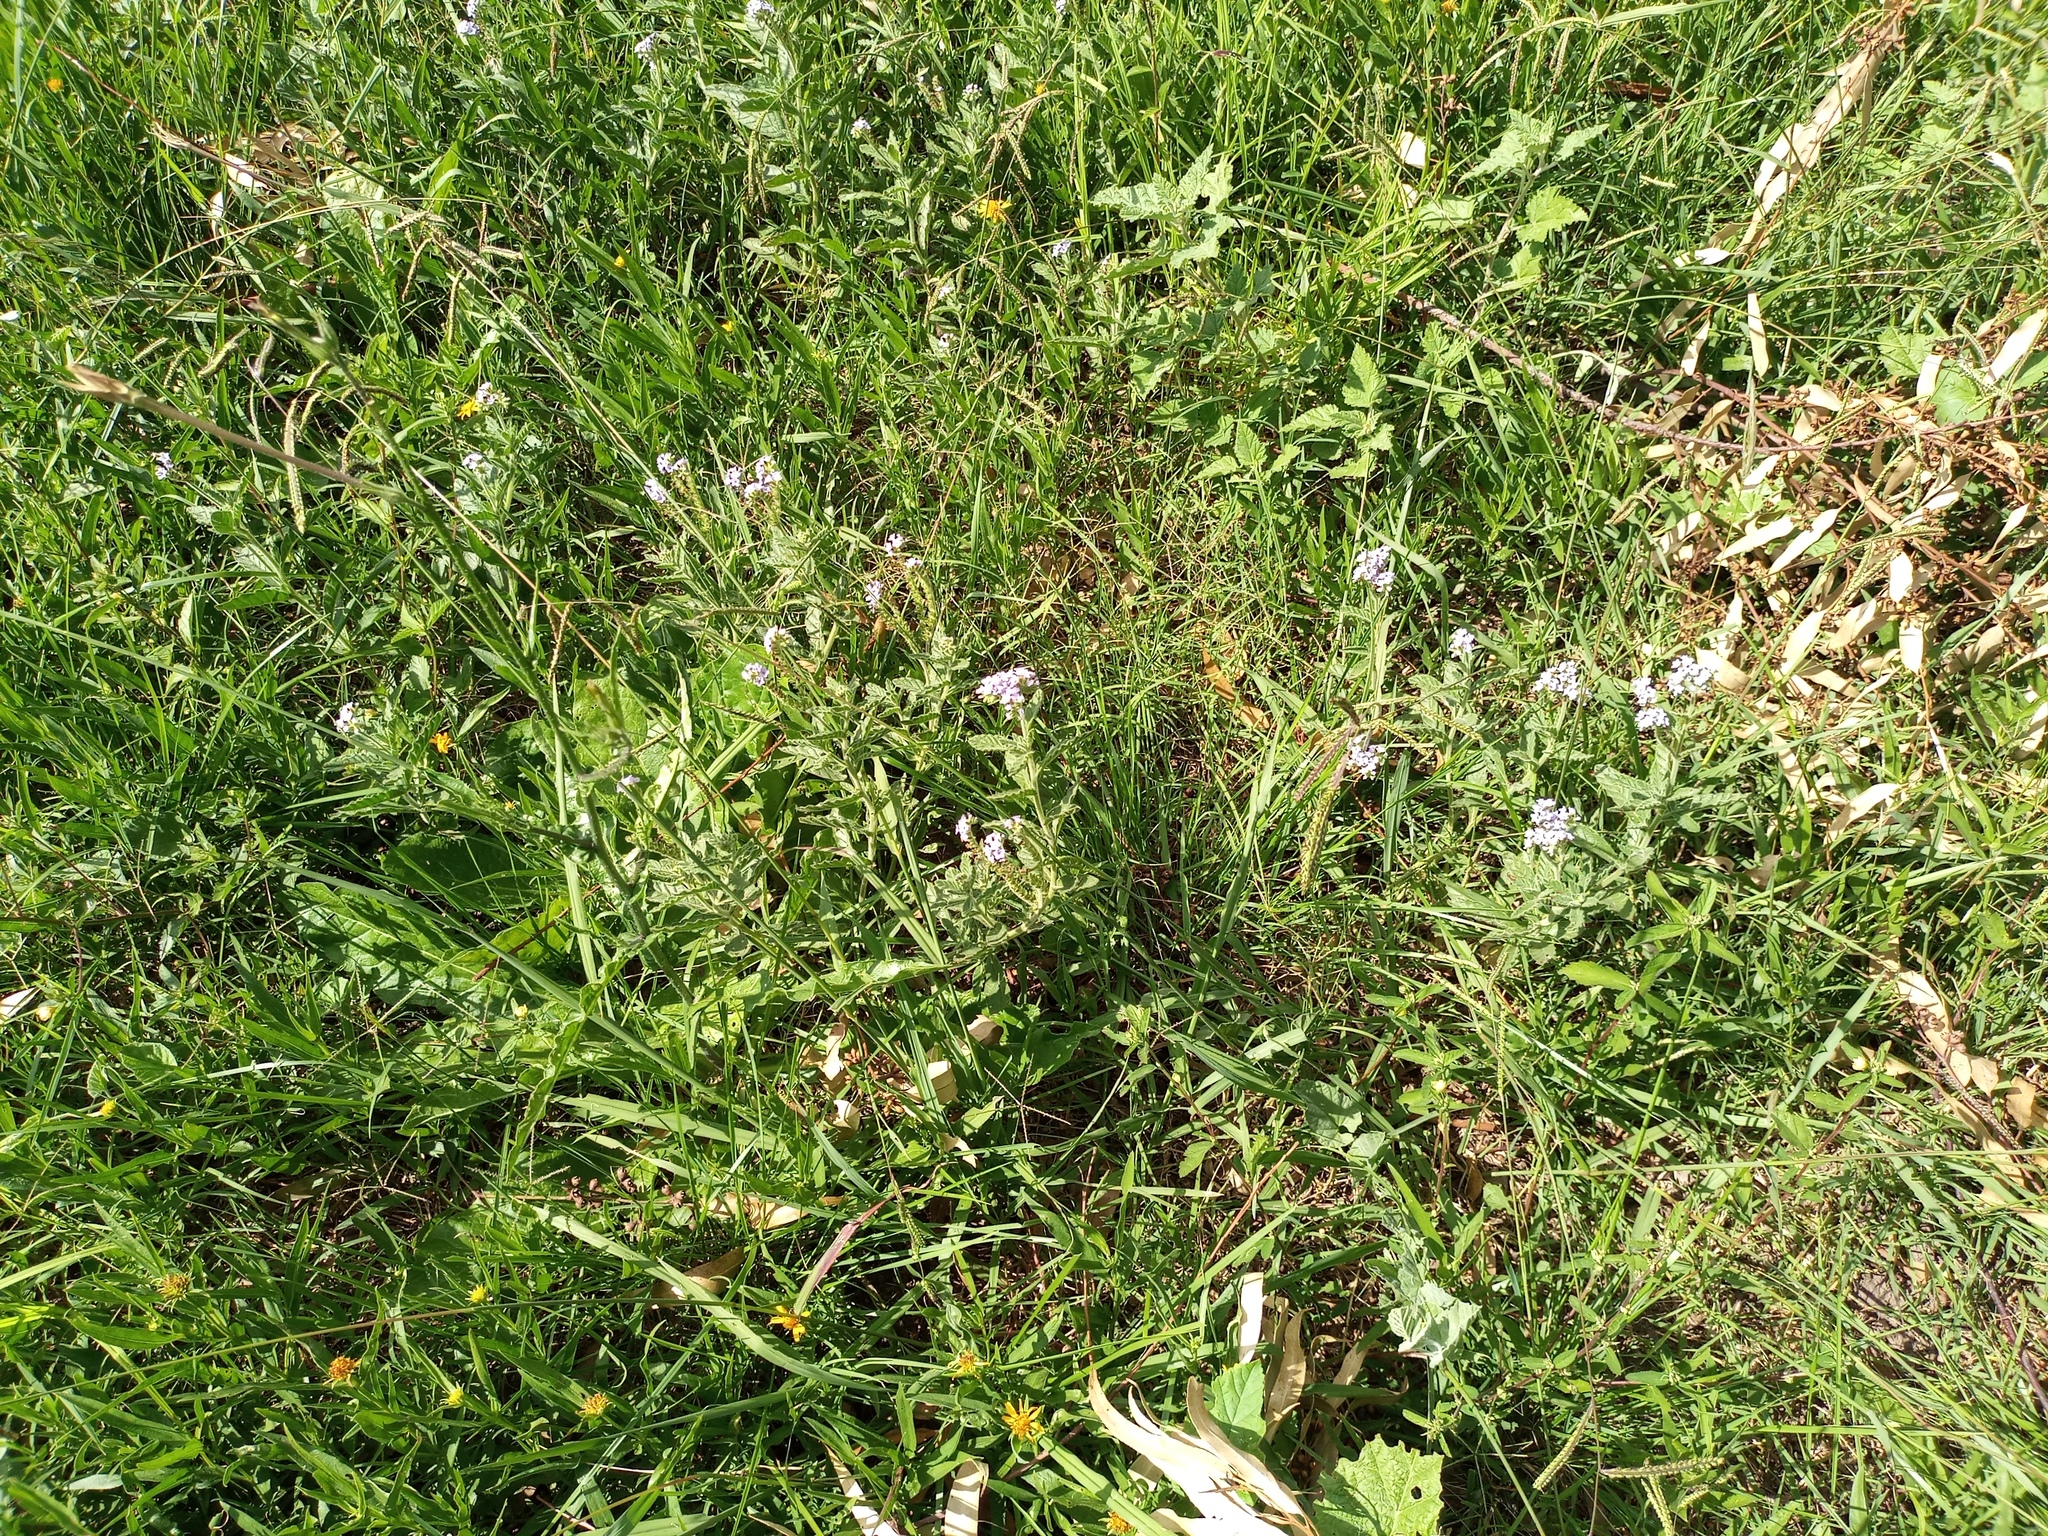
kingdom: Plantae
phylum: Tracheophyta
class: Magnoliopsida
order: Boraginales
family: Heliotropiaceae
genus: Heliotropium
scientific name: Heliotropium amplexicaule
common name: Clasping heliotrope
